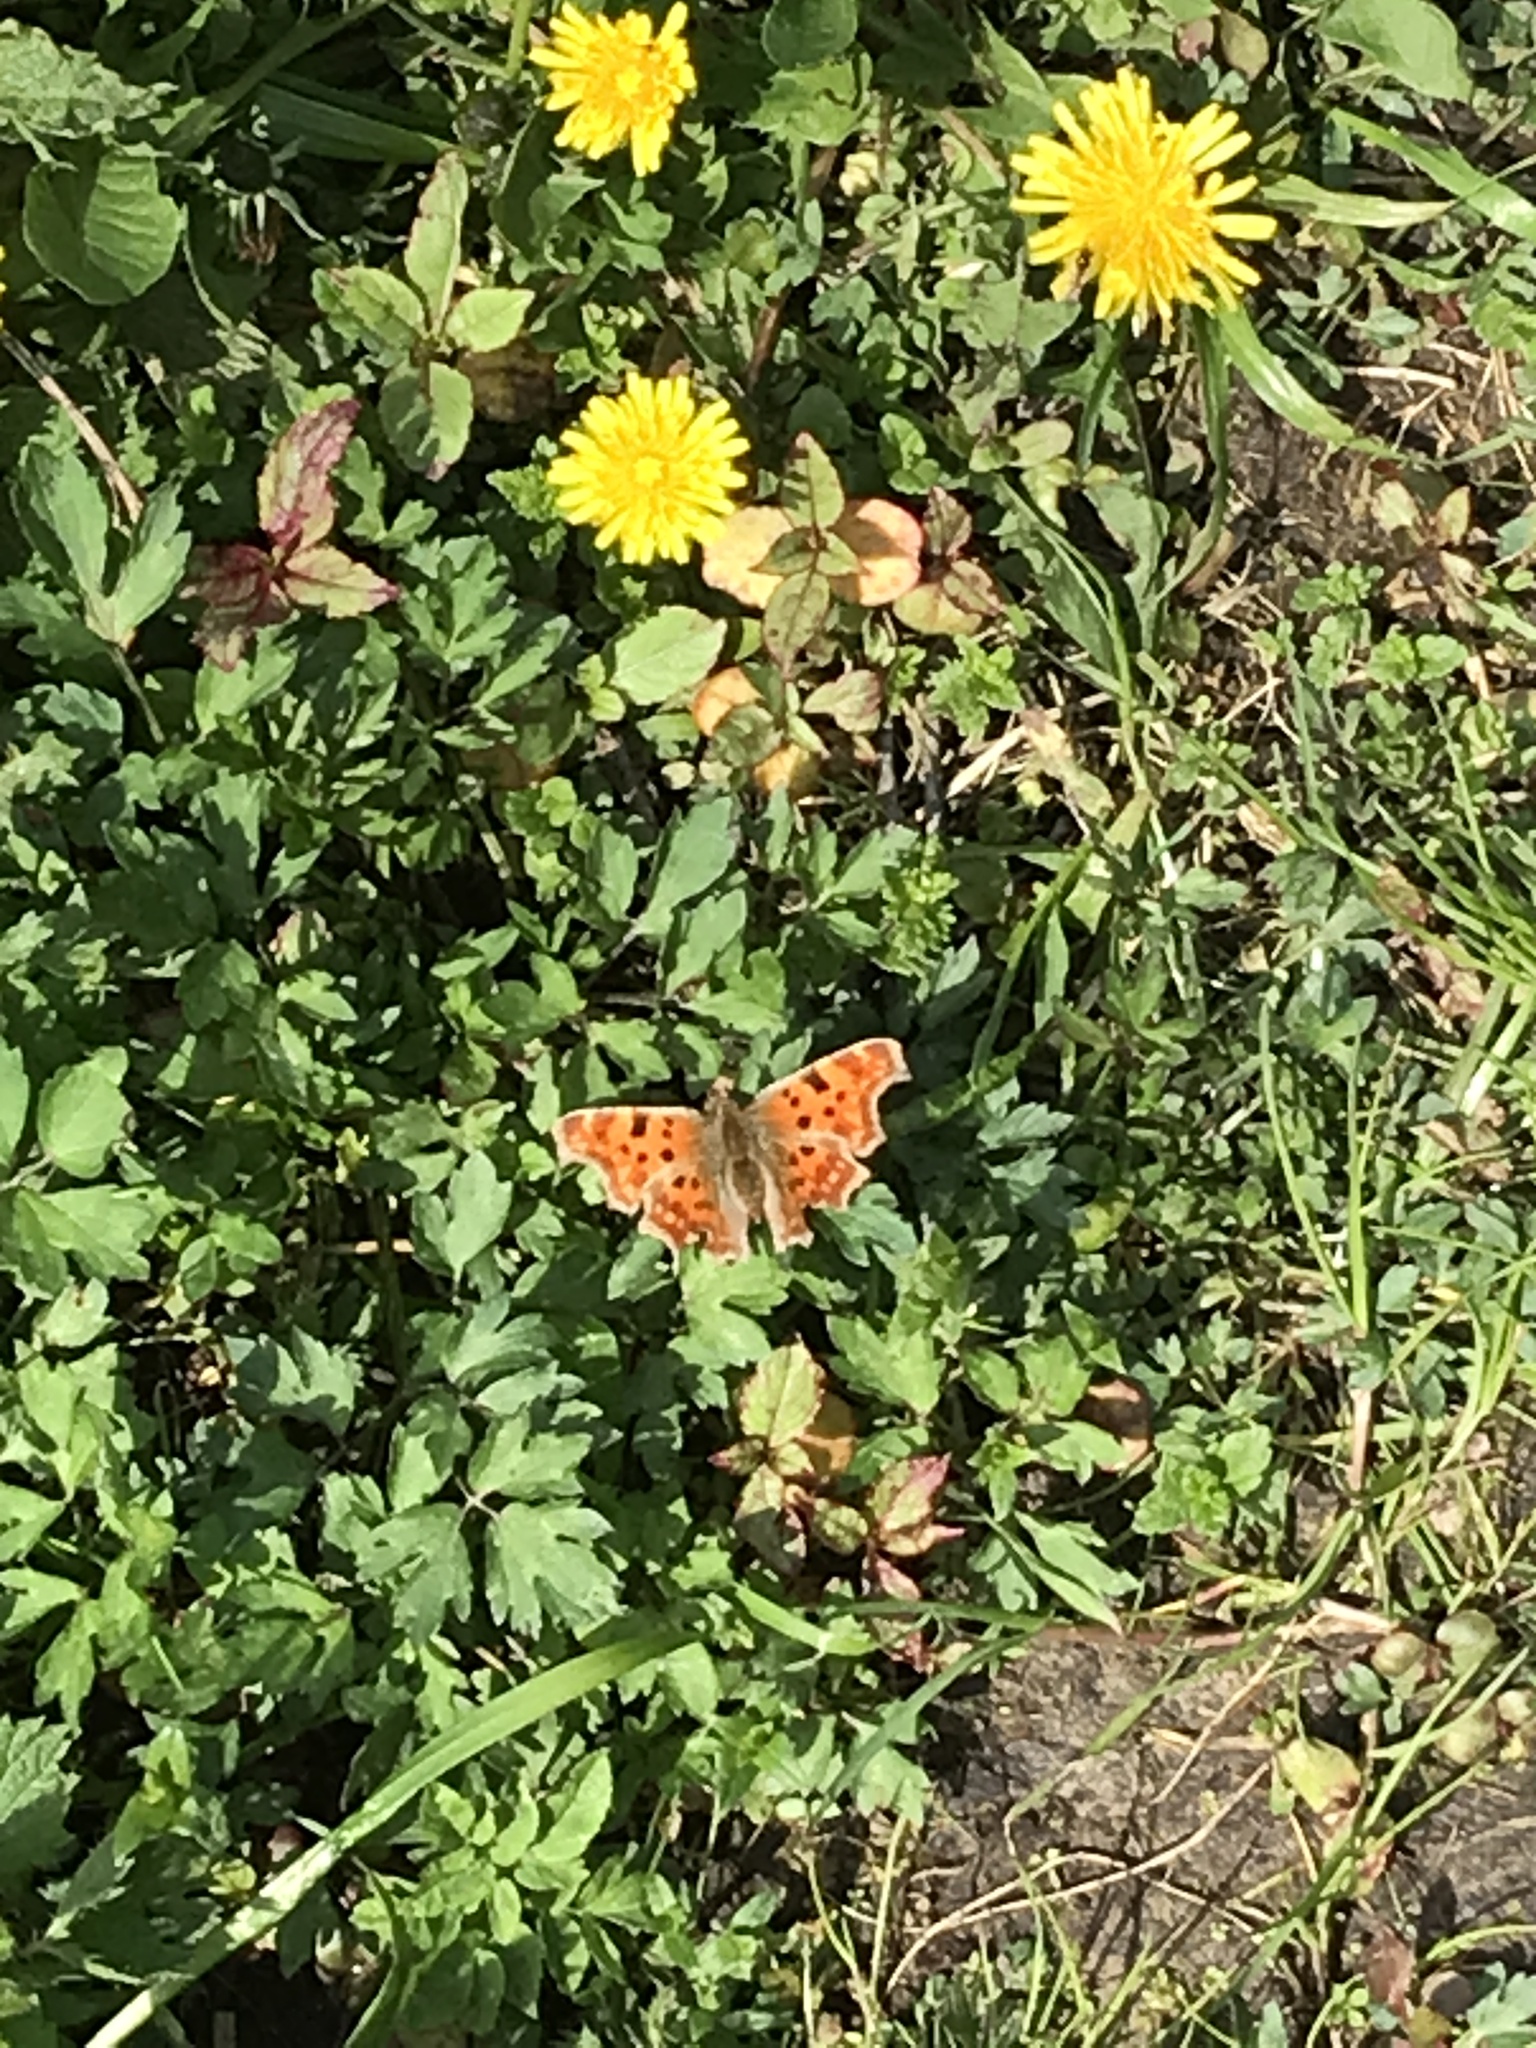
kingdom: Animalia
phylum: Arthropoda
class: Insecta
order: Lepidoptera
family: Nymphalidae
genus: Polygonia
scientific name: Polygonia c-album
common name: Comma
